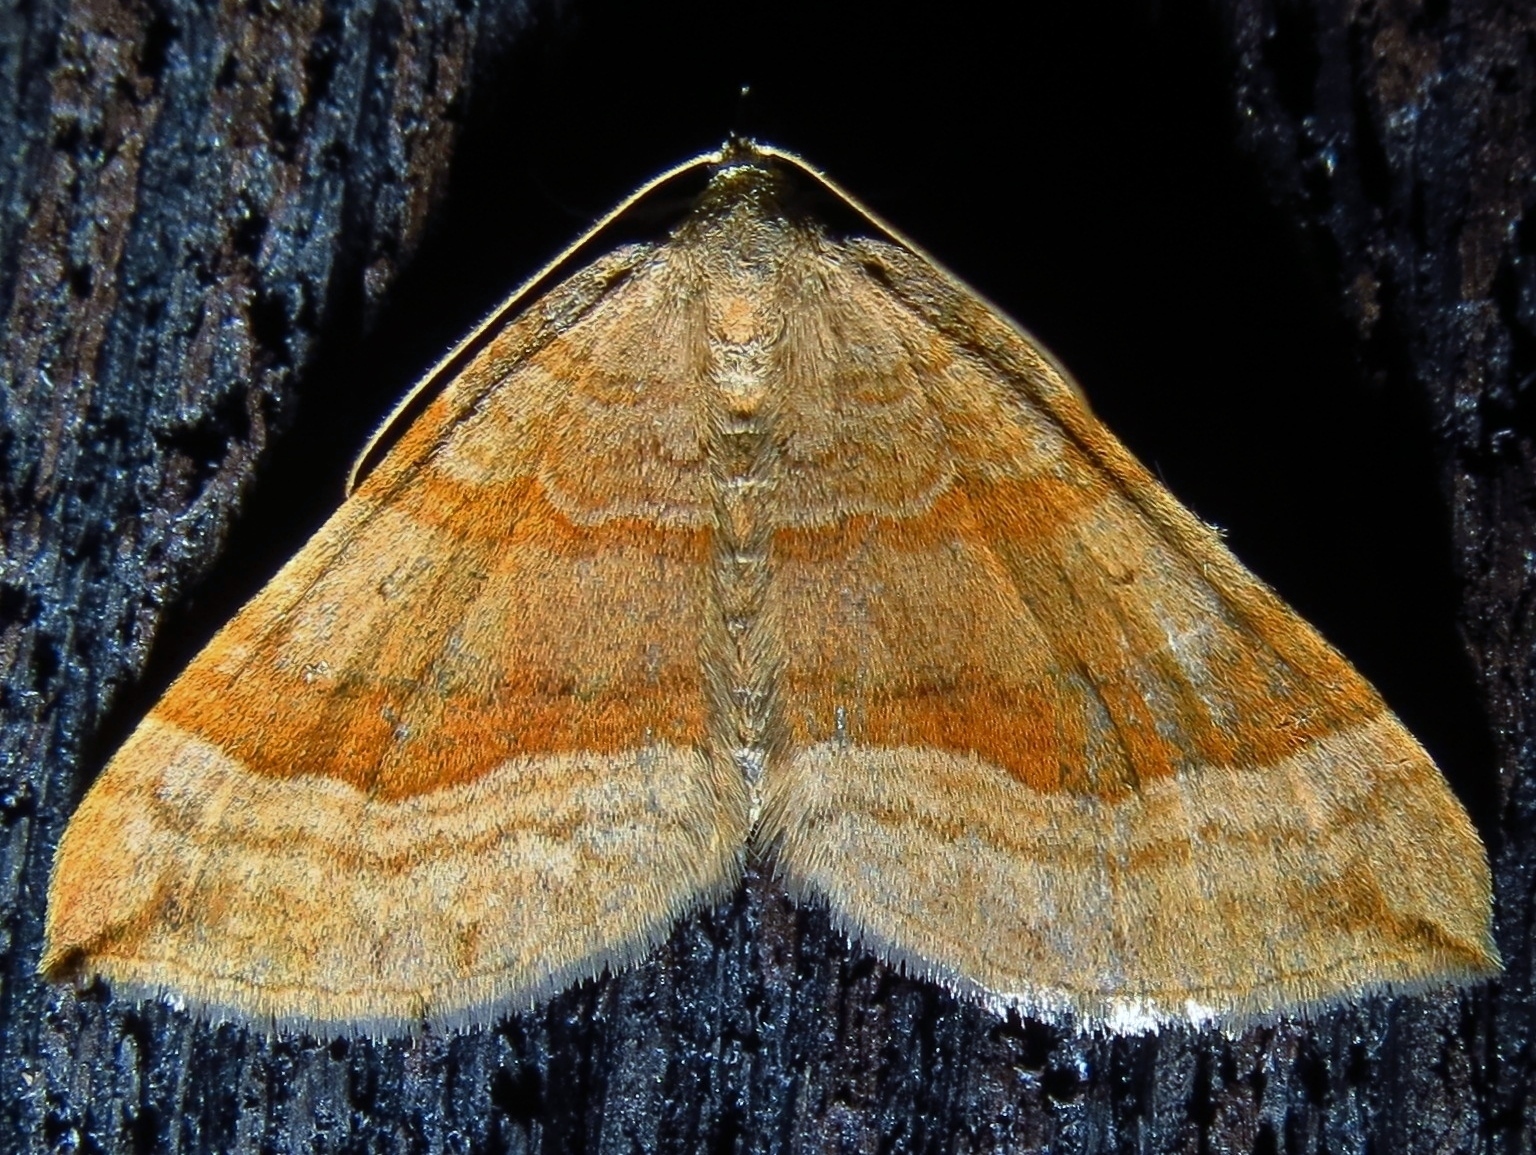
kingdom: Animalia
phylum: Arthropoda
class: Insecta
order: Lepidoptera
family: Geometridae
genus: Scotopteryx
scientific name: Scotopteryx chenopodiata
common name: Shaded broad-bar
